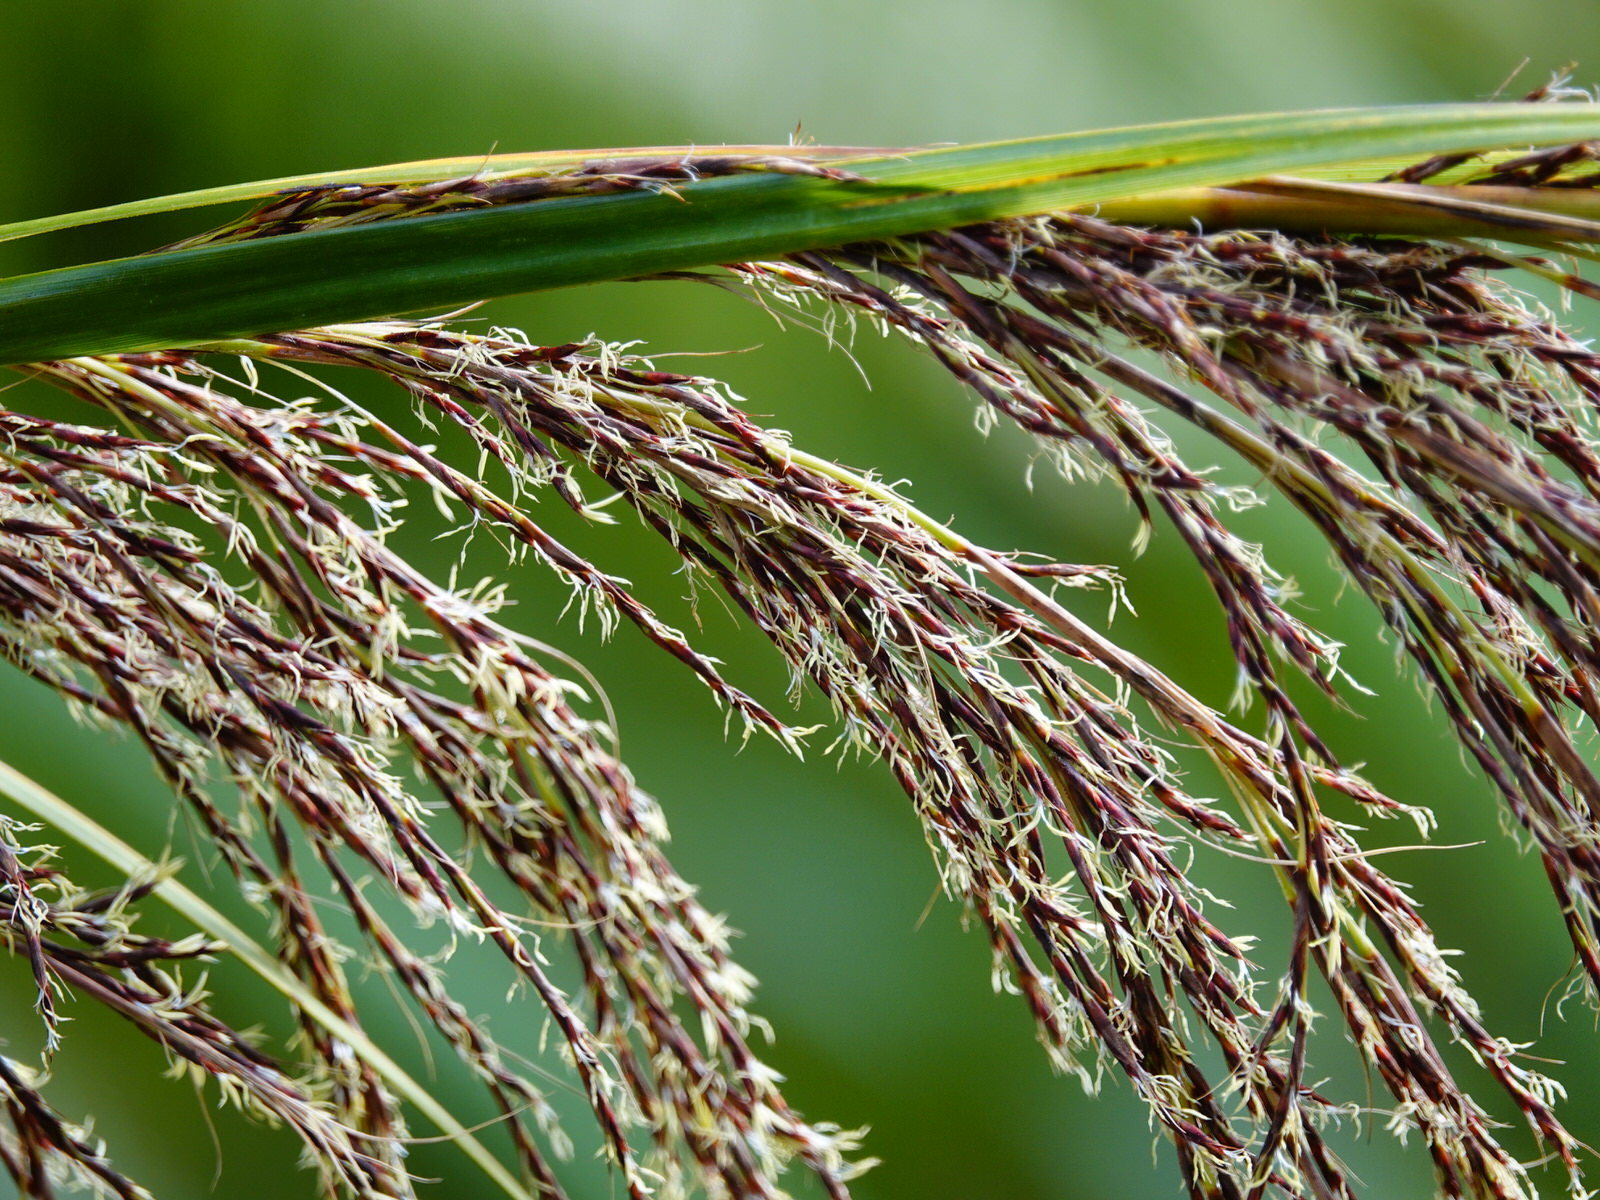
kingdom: Plantae
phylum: Tracheophyta
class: Liliopsida
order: Poales
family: Cyperaceae
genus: Gahnia
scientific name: Gahnia setifolia
